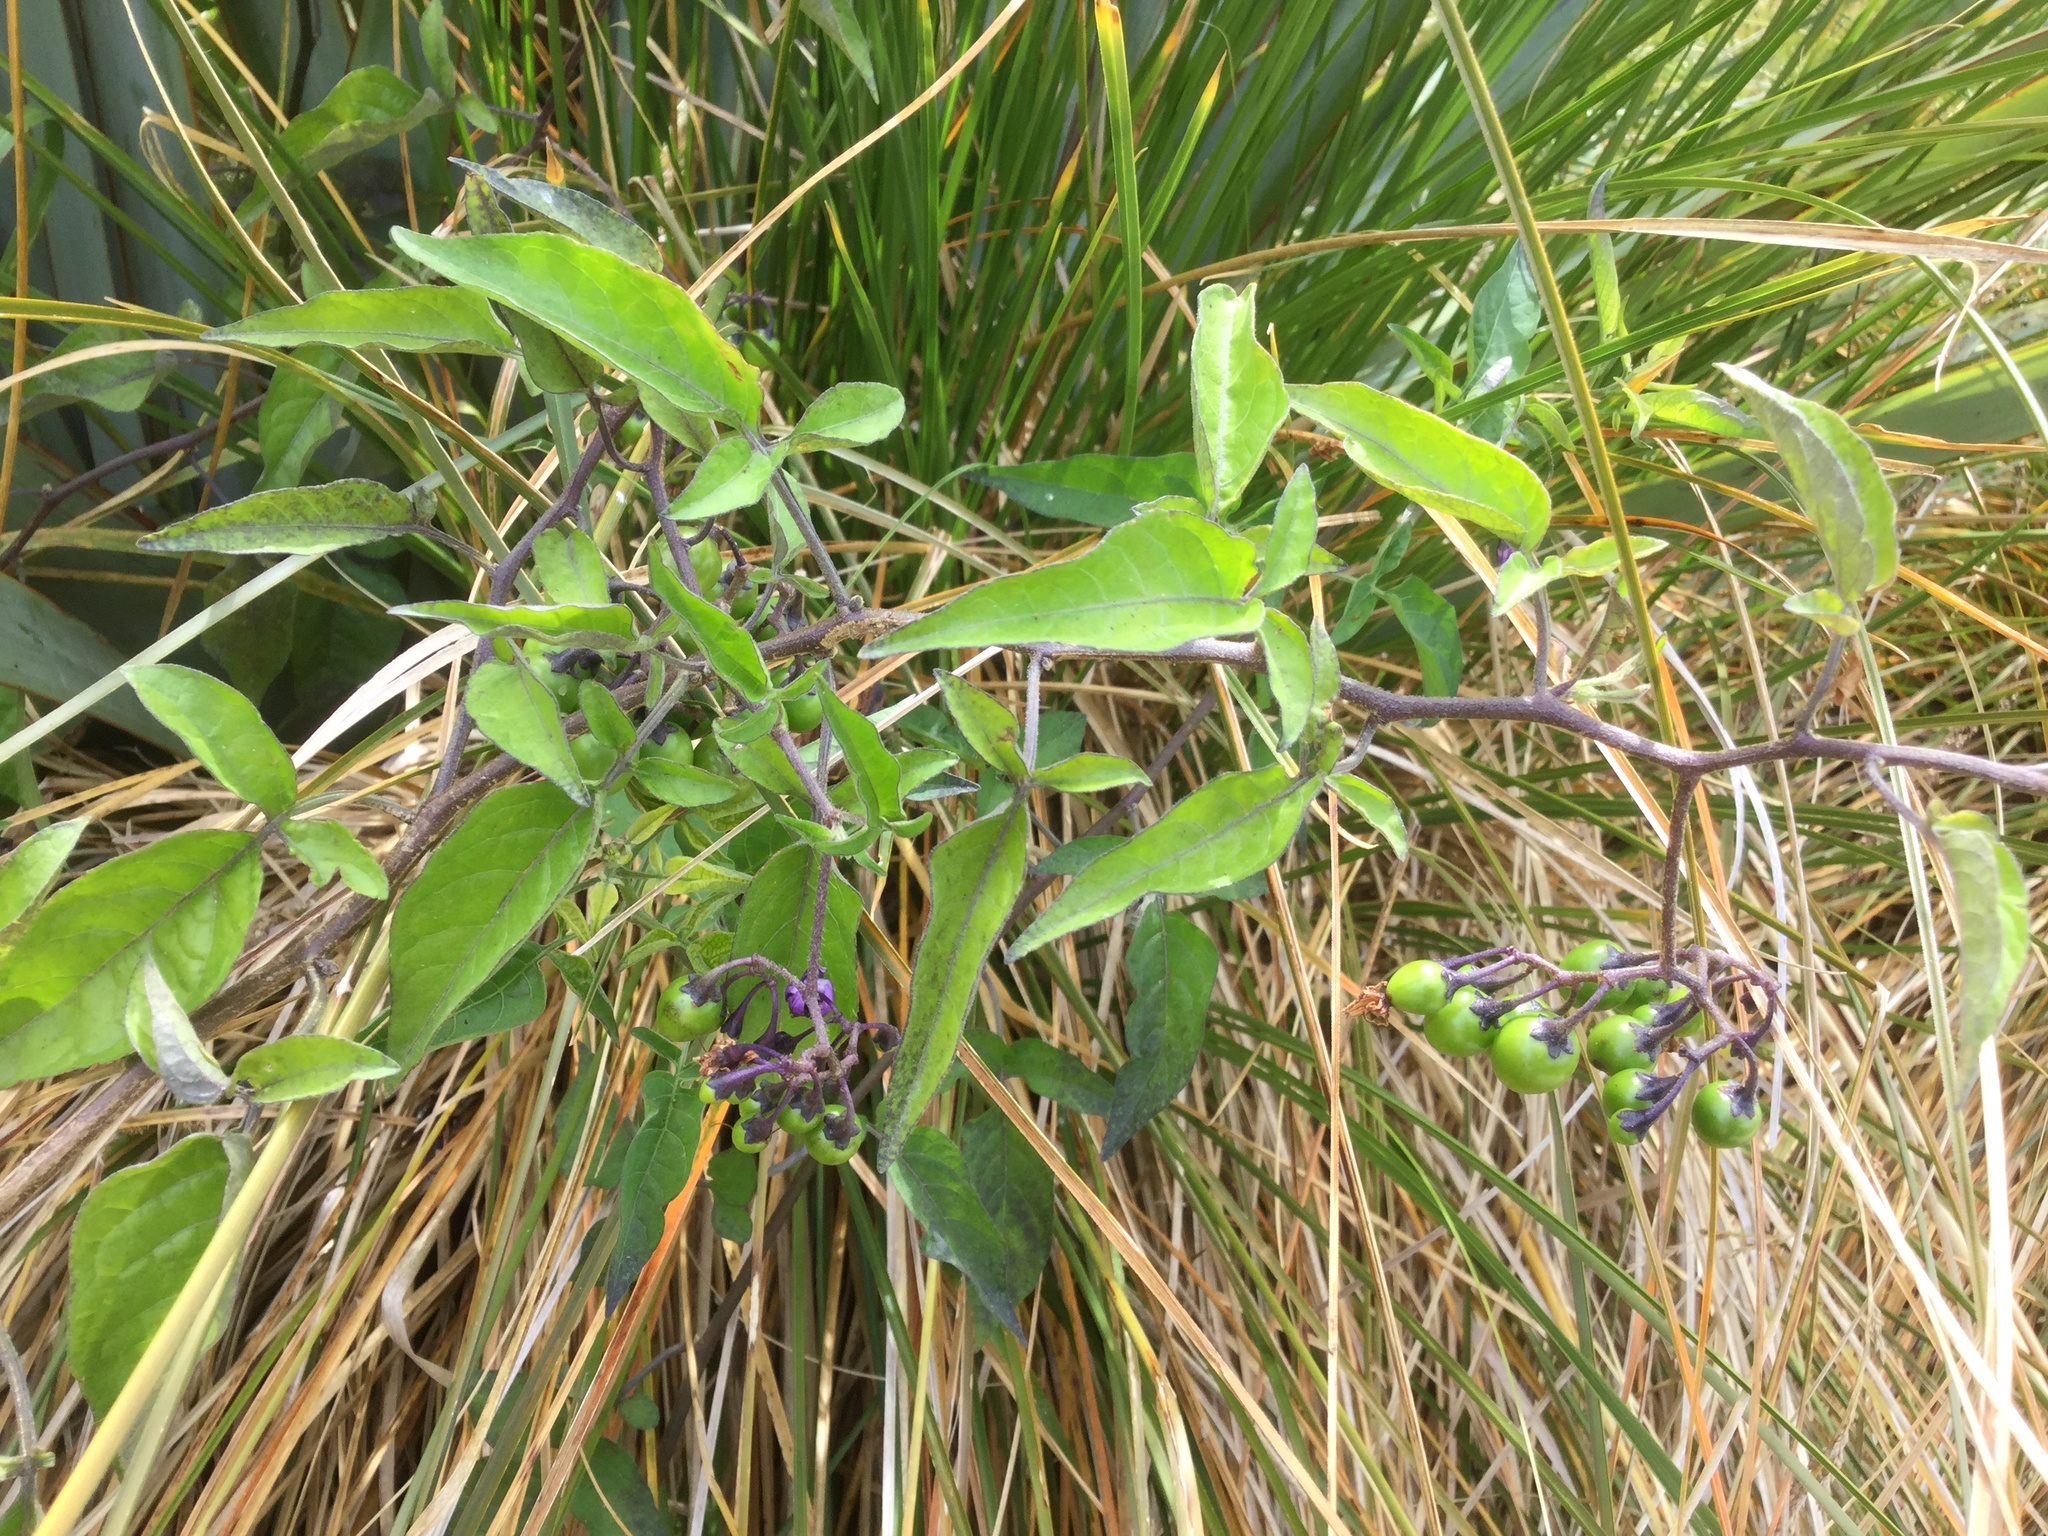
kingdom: Plantae
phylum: Tracheophyta
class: Magnoliopsida
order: Solanales
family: Solanaceae
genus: Solanum
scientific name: Solanum dulcamara
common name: Climbing nightshade
